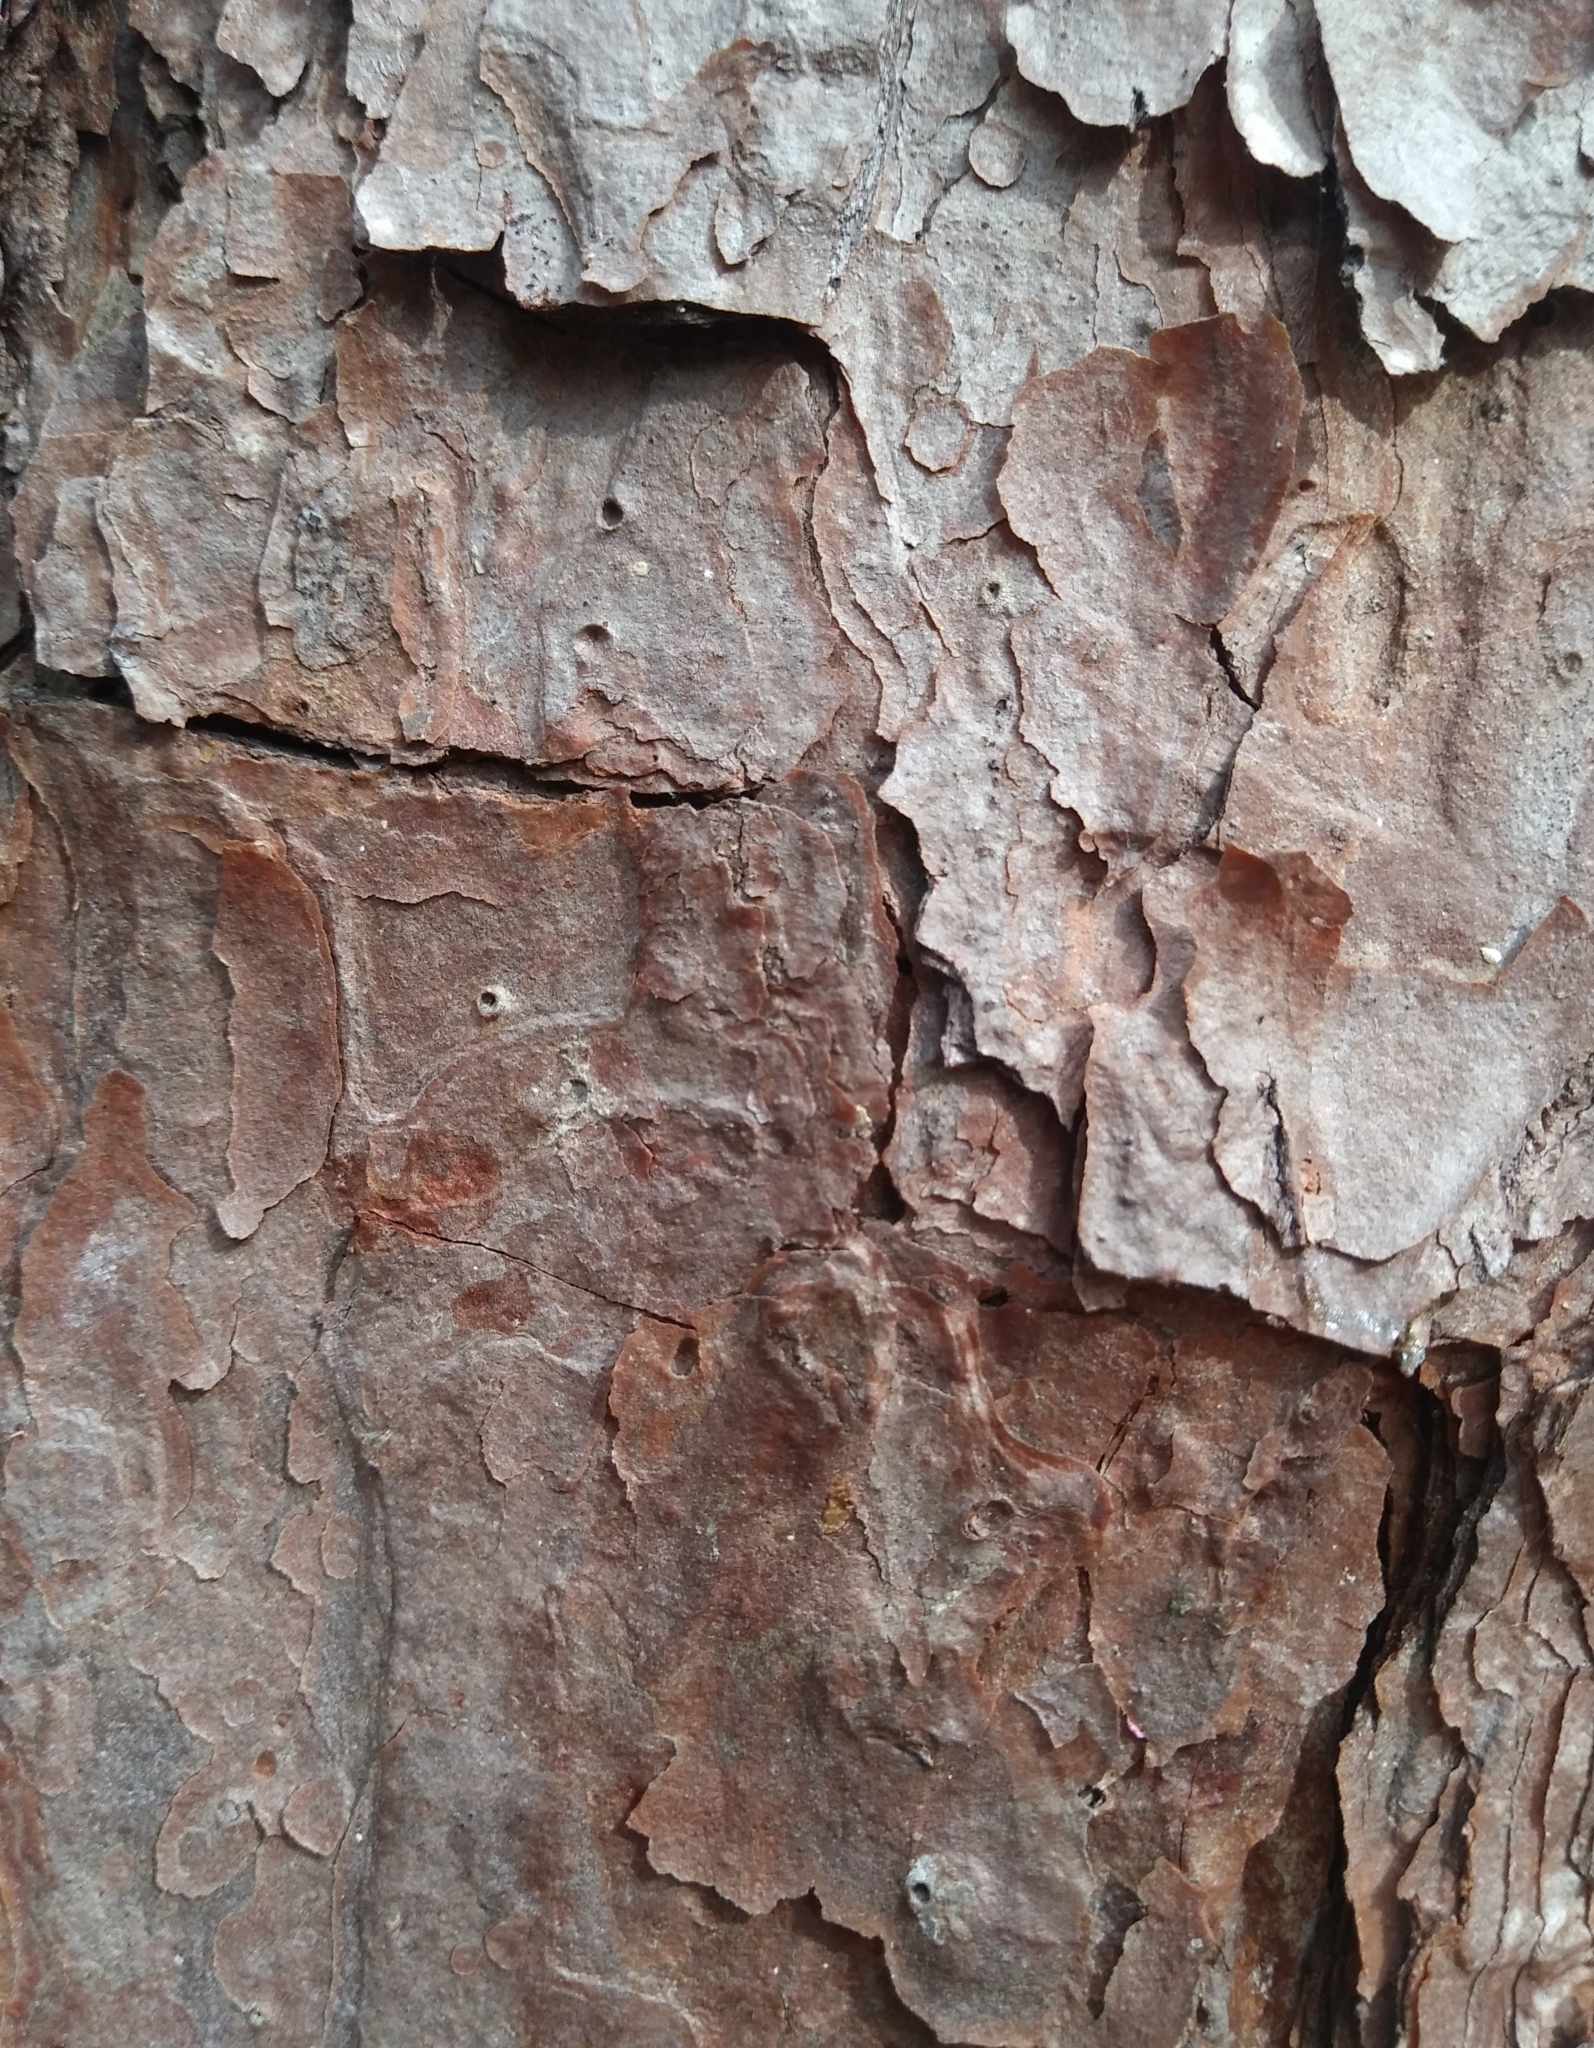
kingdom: Plantae
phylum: Tracheophyta
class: Pinopsida
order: Pinales
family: Pinaceae
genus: Pinus
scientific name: Pinus echinata
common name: Shortleaf pine
